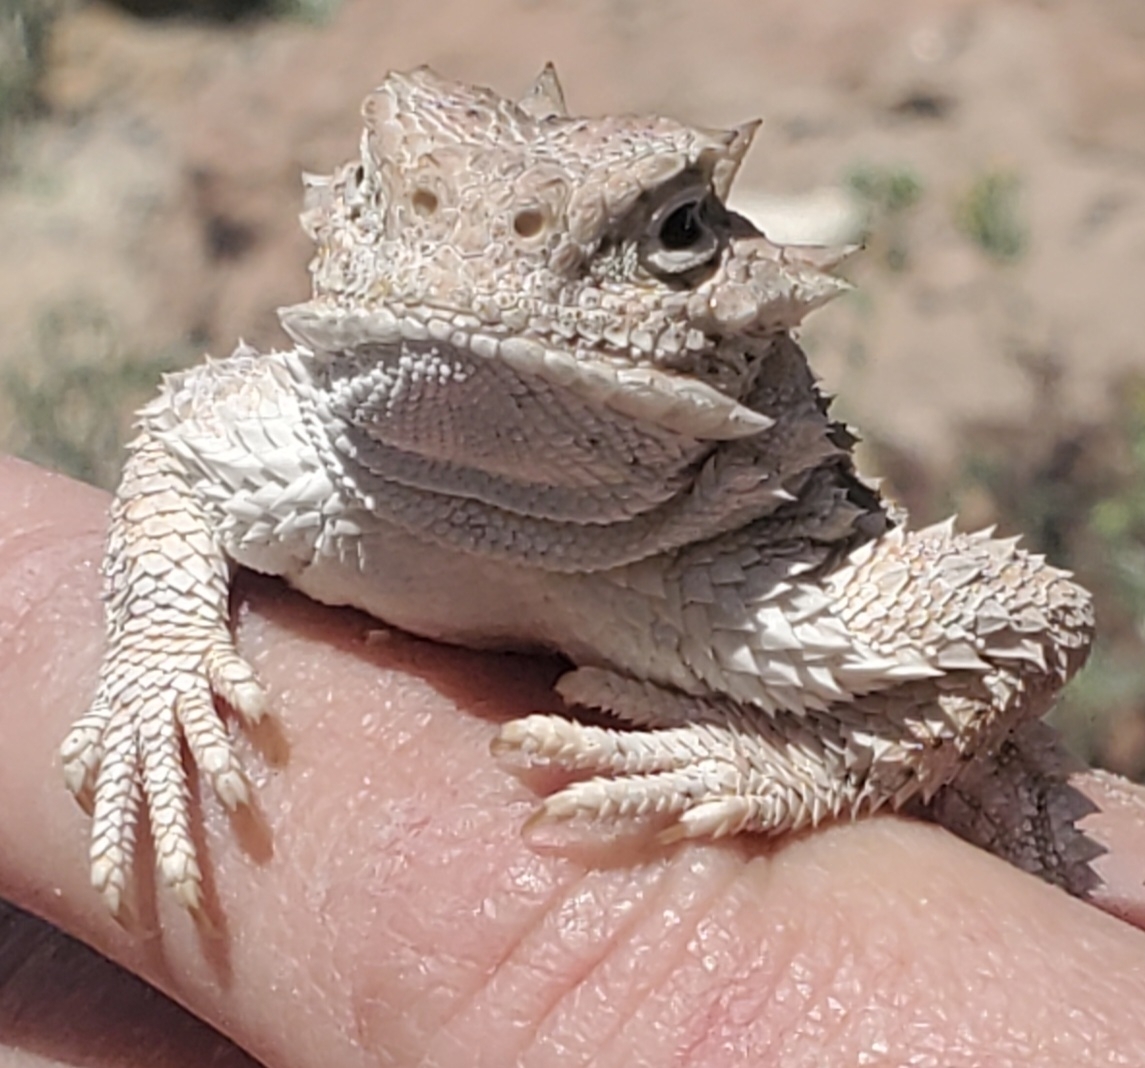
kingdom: Animalia
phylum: Chordata
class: Squamata
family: Phrynosomatidae
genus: Phrynosoma
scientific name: Phrynosoma platyrhinos
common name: Desert horned lizard
